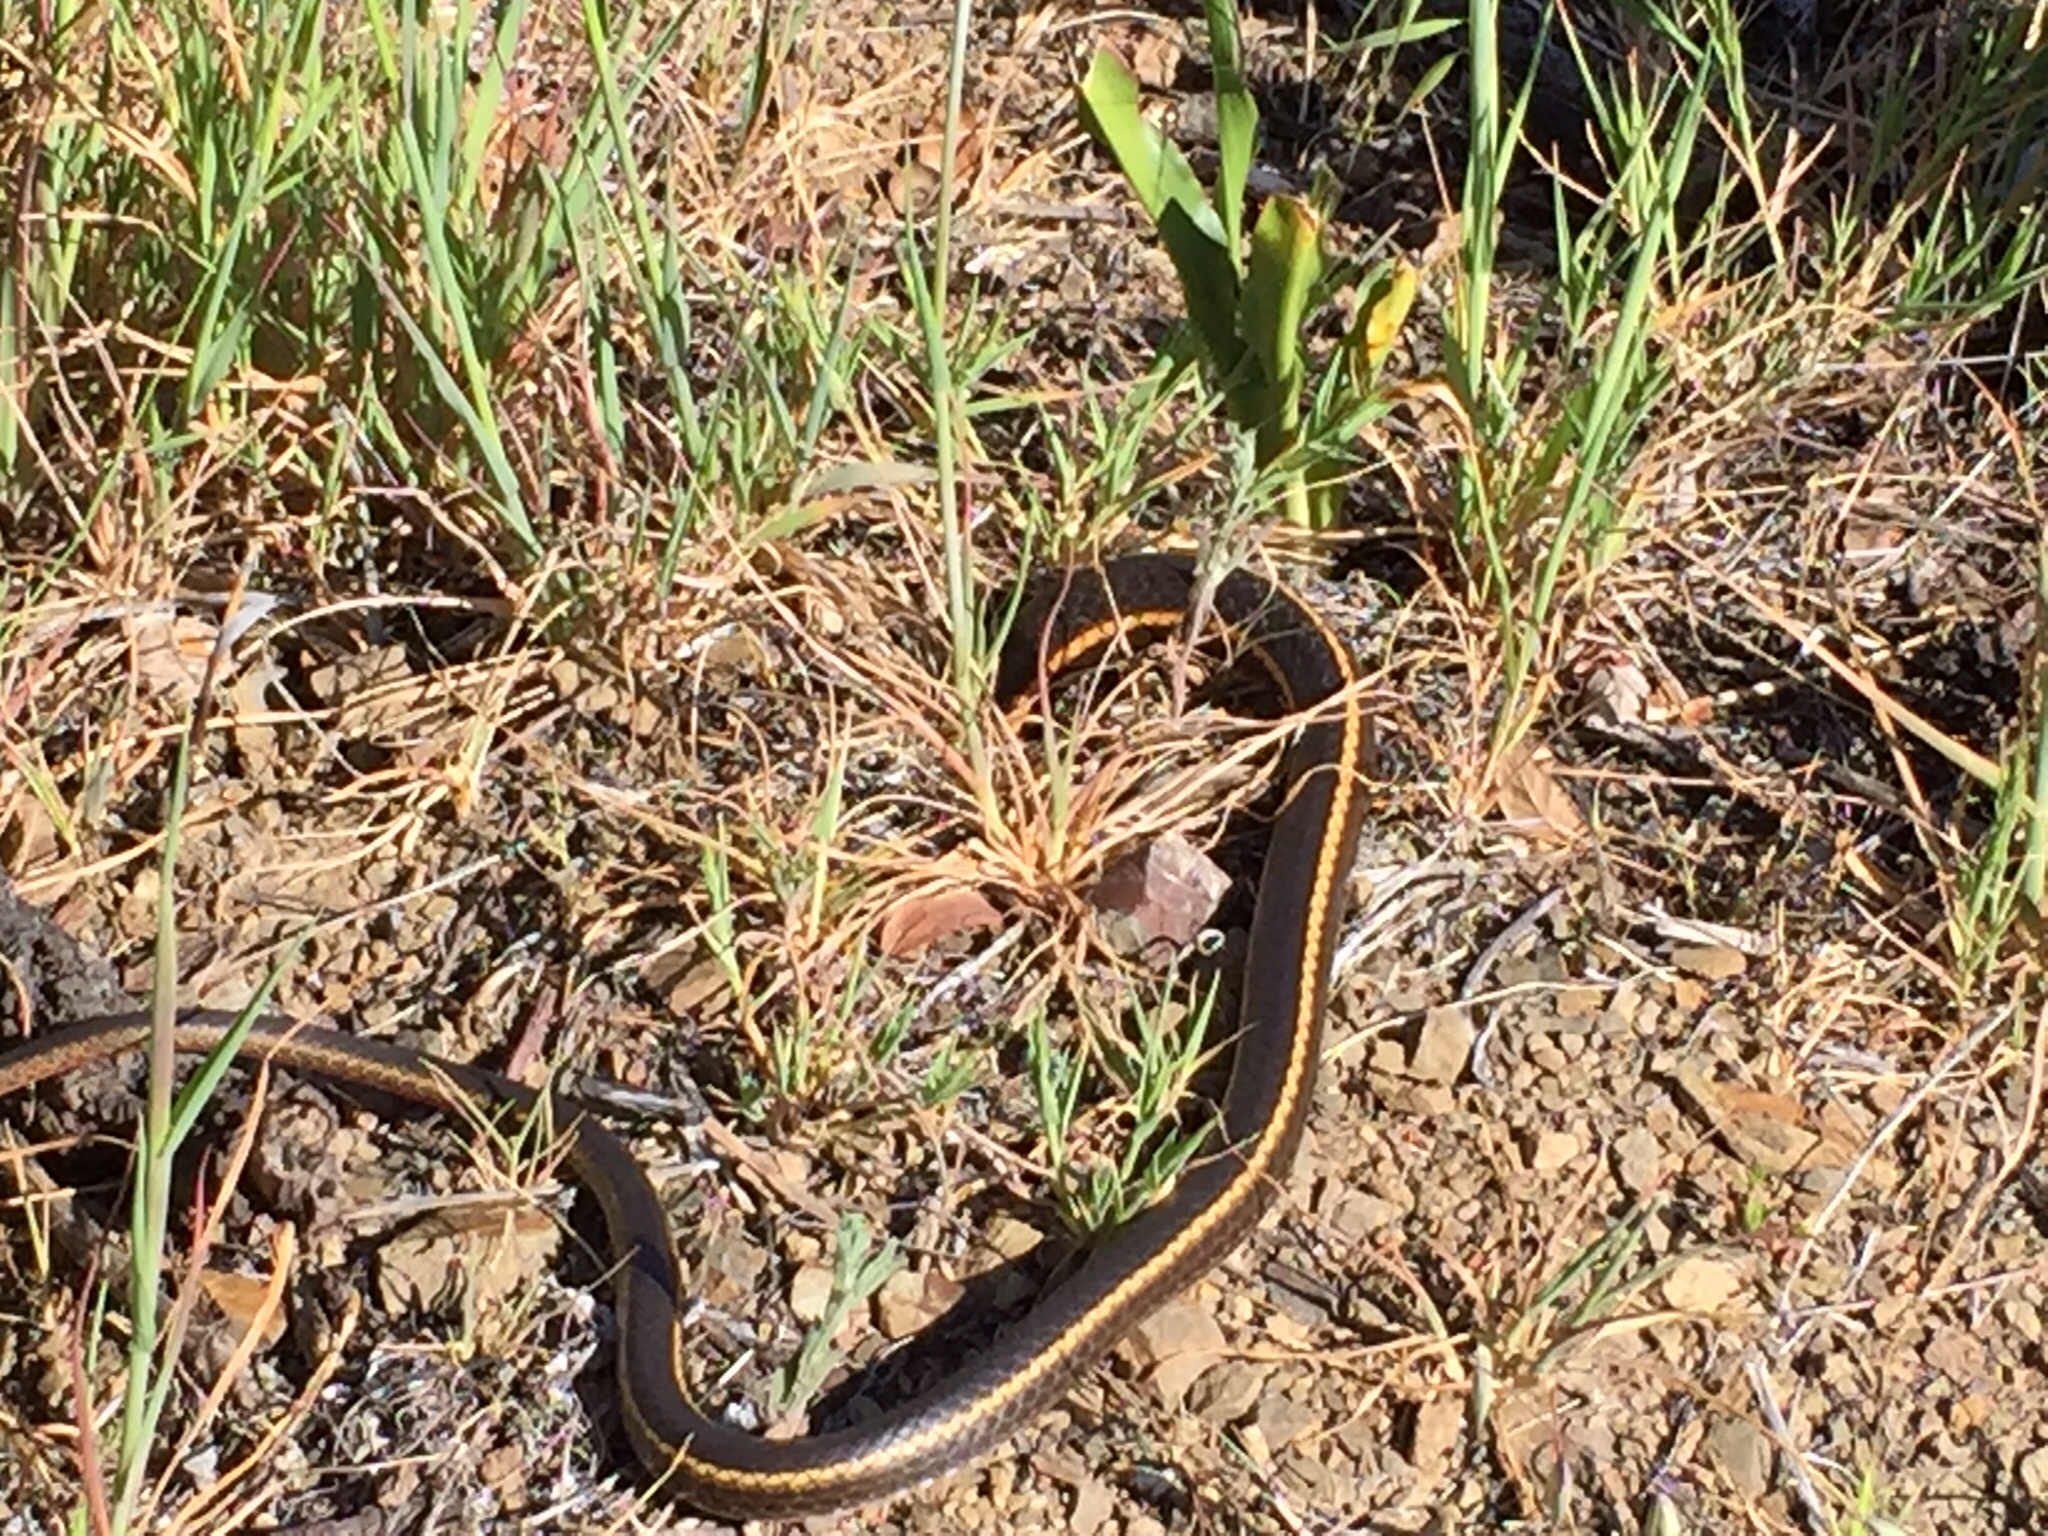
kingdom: Animalia
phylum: Chordata
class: Squamata
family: Colubridae
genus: Masticophis
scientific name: Masticophis lateralis
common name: Striped racer
